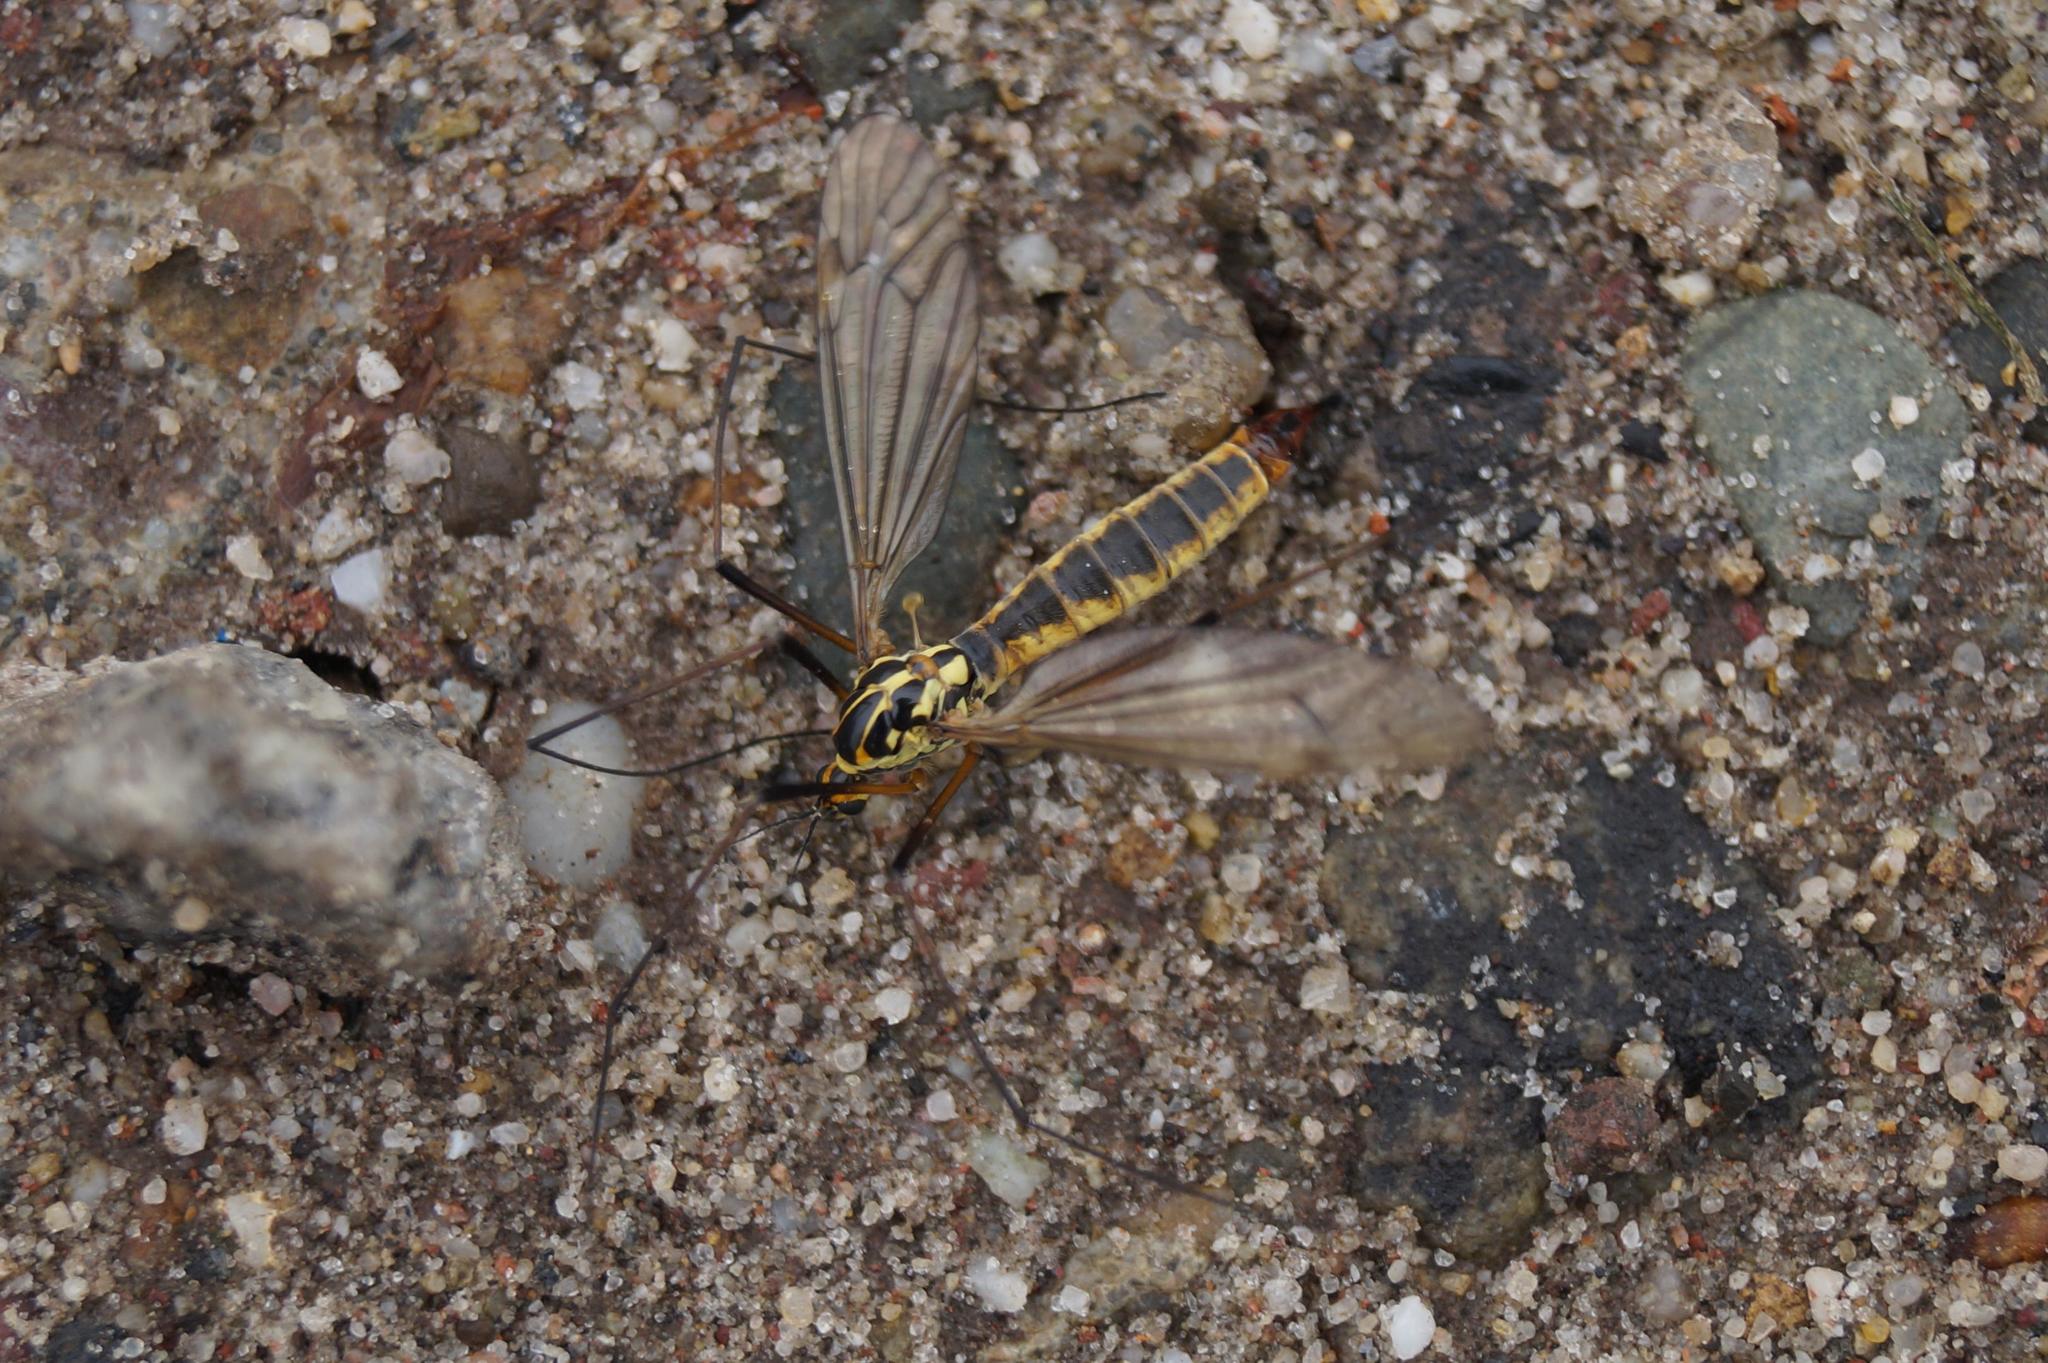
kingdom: Animalia
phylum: Arthropoda
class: Insecta
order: Diptera
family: Tipulidae
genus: Nephrotoma
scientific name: Nephrotoma appendiculata
